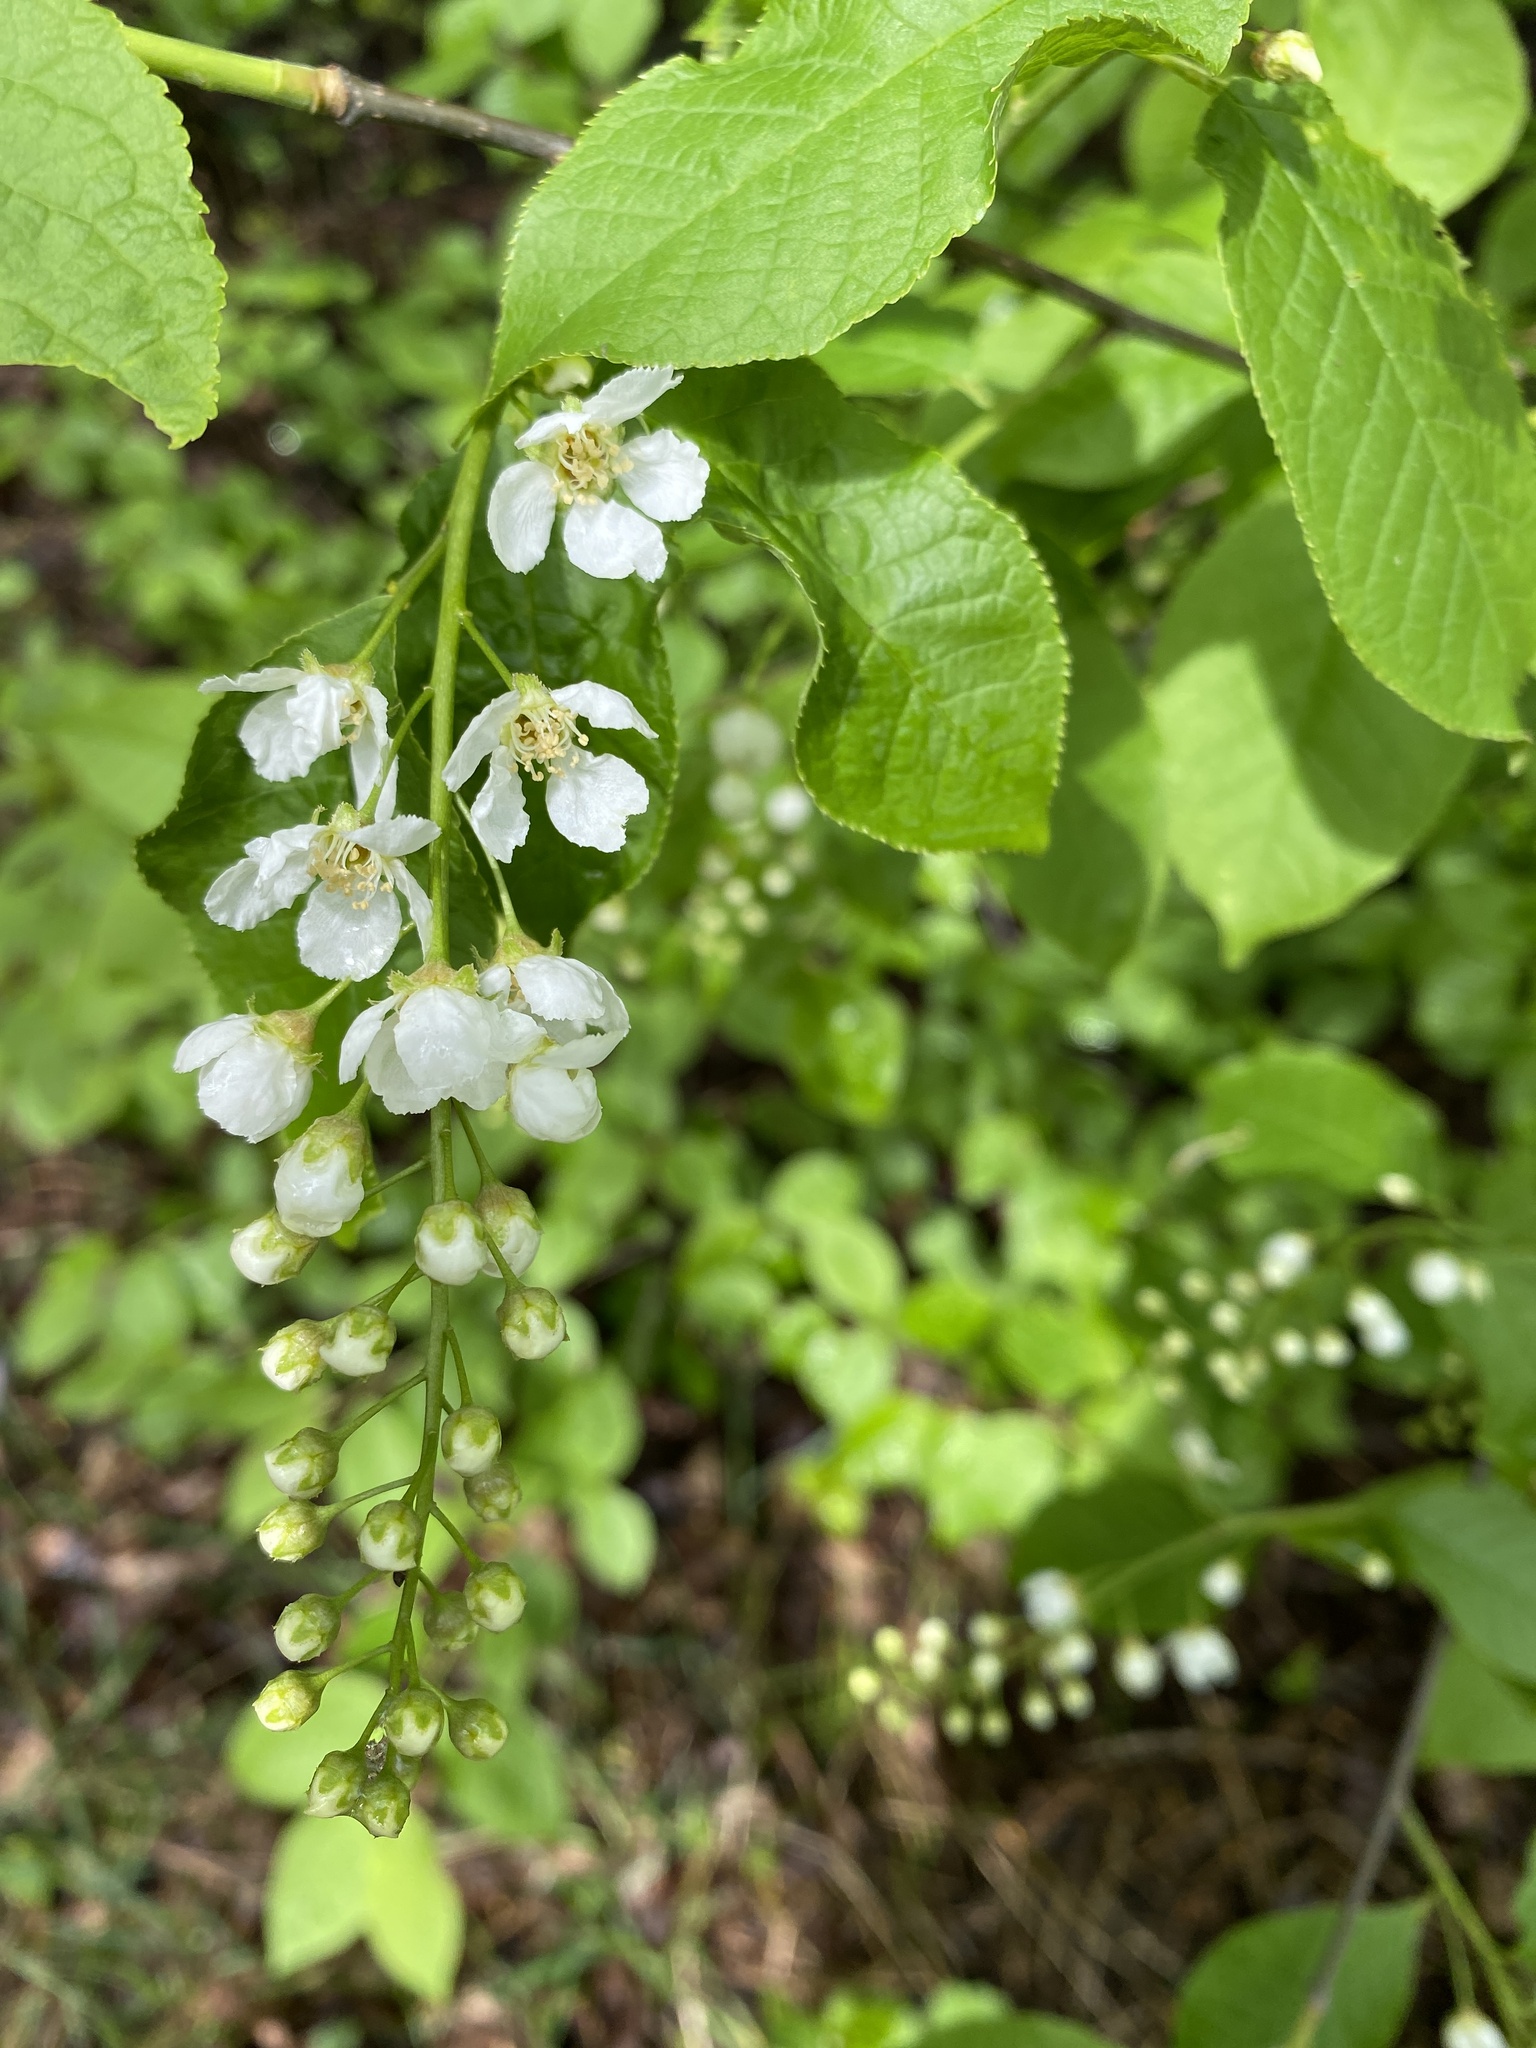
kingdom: Plantae
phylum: Tracheophyta
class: Magnoliopsida
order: Rosales
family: Rosaceae
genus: Prunus
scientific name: Prunus padus
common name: Bird cherry
